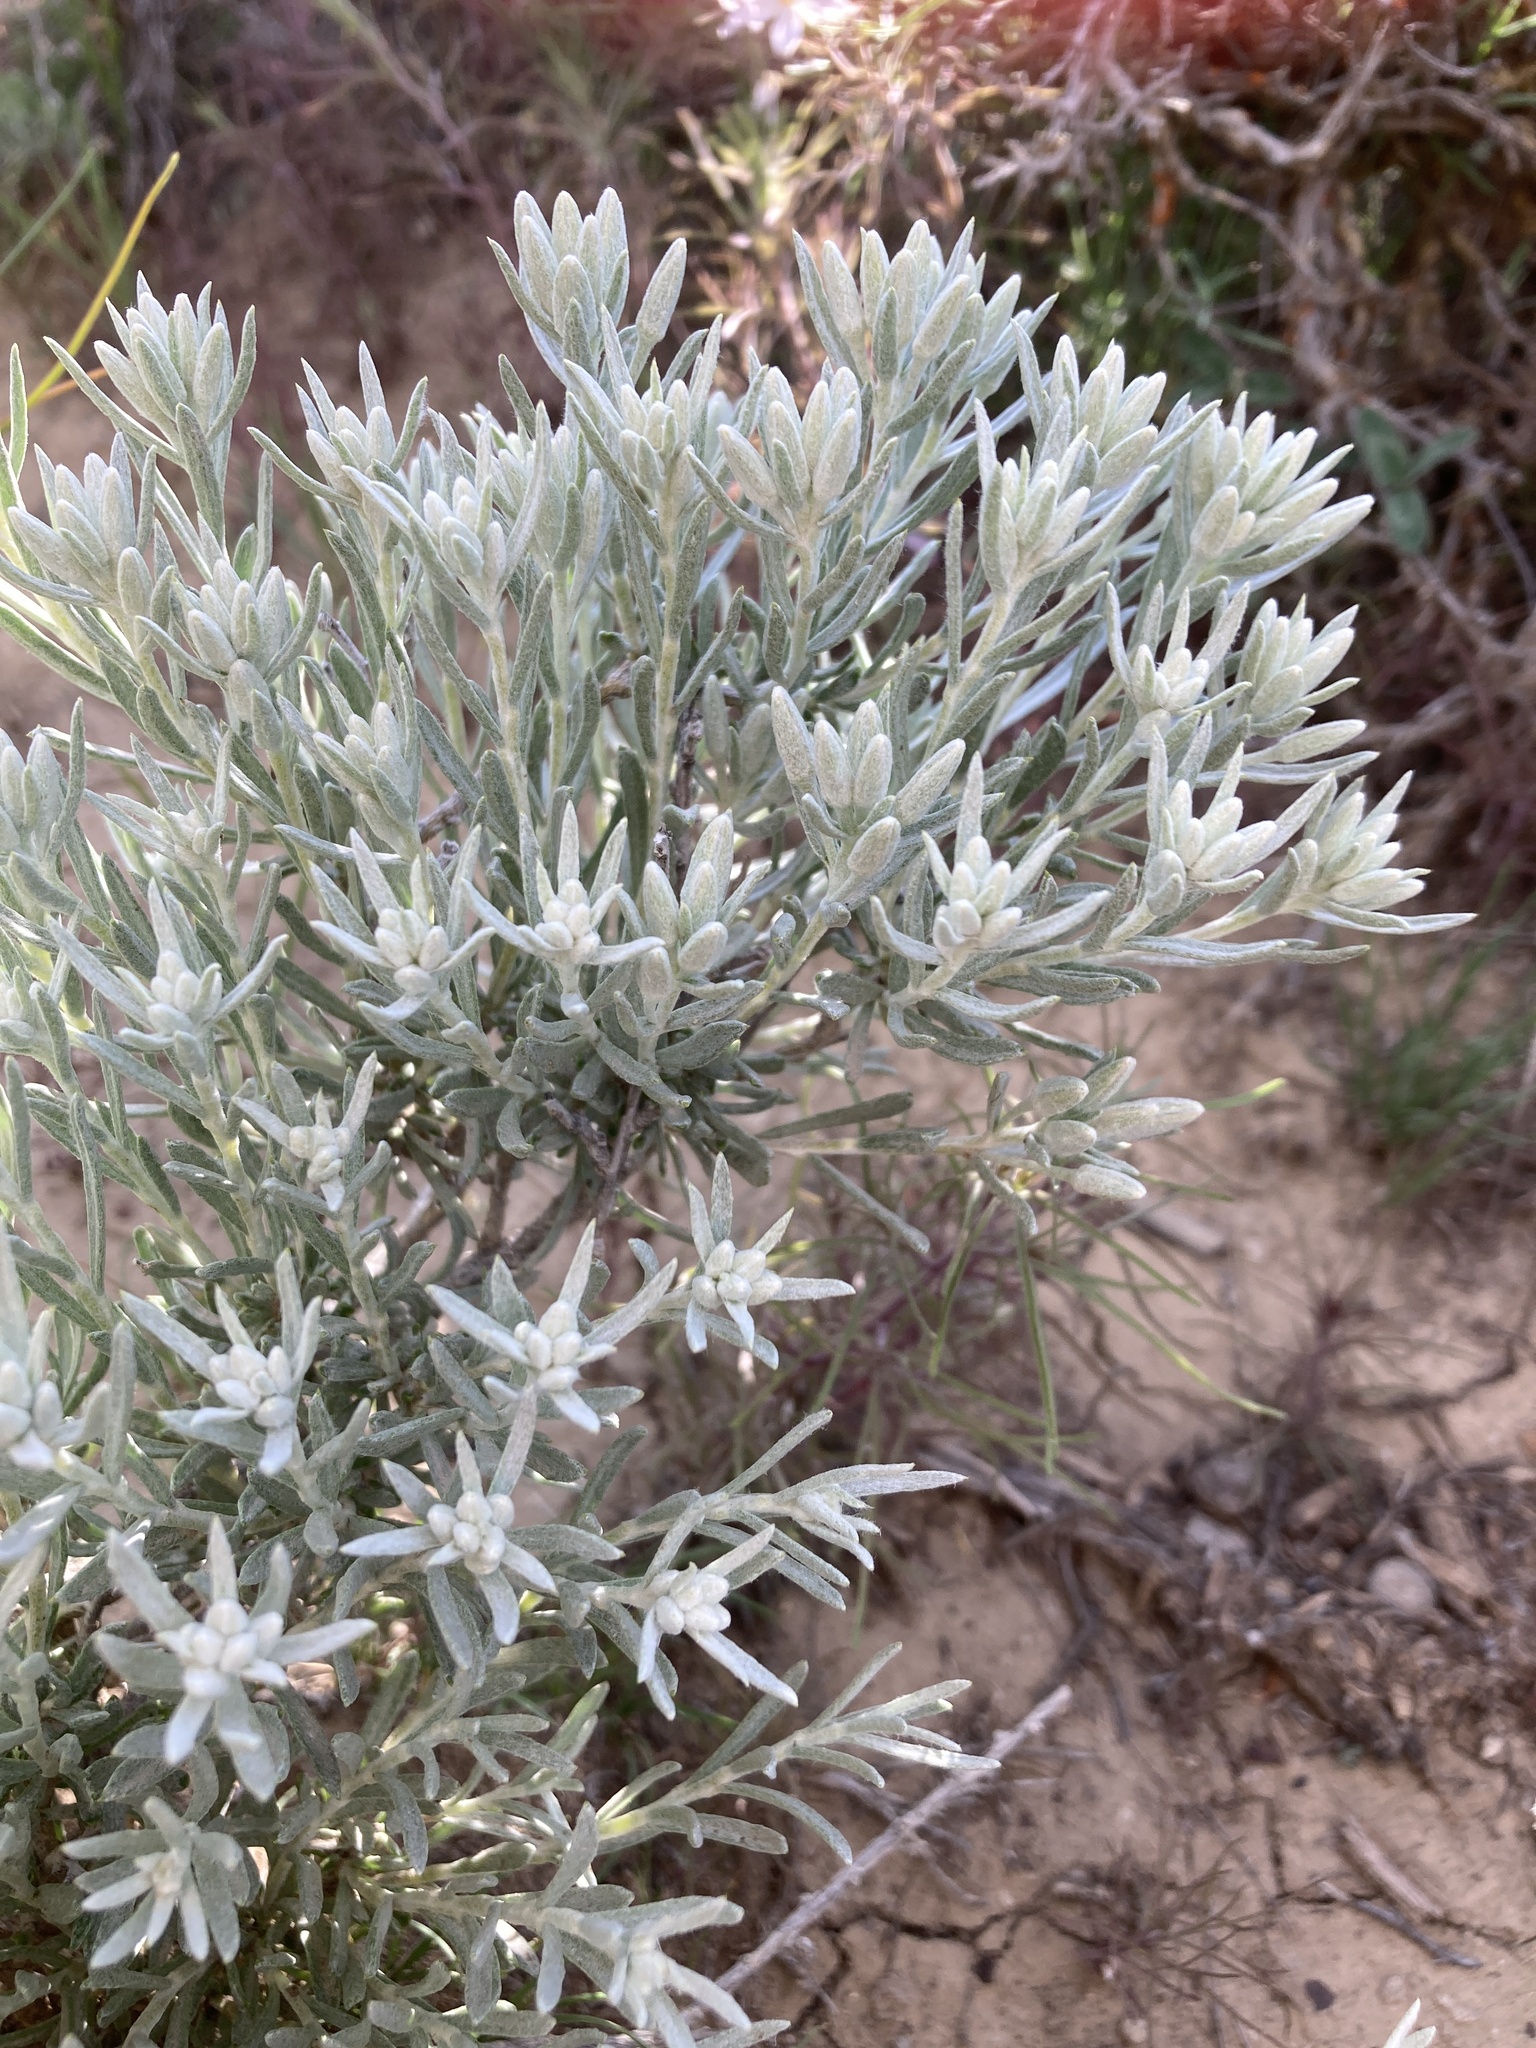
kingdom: Plantae
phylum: Tracheophyta
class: Magnoliopsida
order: Asterales
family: Asteraceae
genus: Tetradymia
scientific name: Tetradymia canescens
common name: Spineless horsebrush
